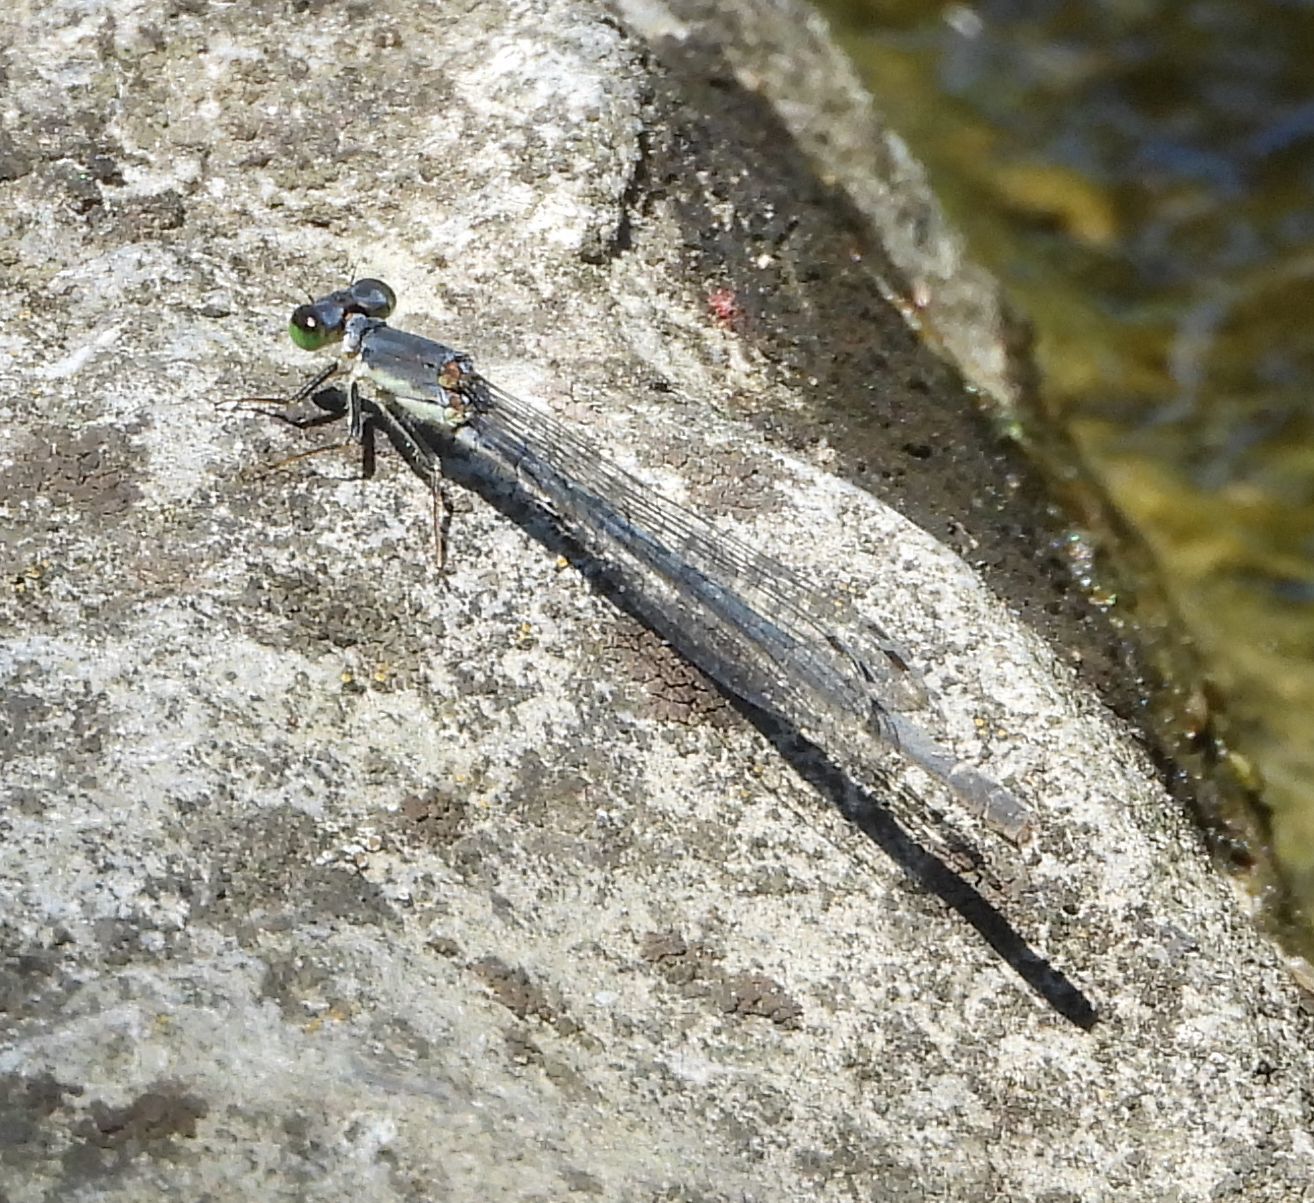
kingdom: Animalia
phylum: Arthropoda
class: Insecta
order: Odonata
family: Coenagrionidae
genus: Ischnura
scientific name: Ischnura posita
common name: Fragile forktail
